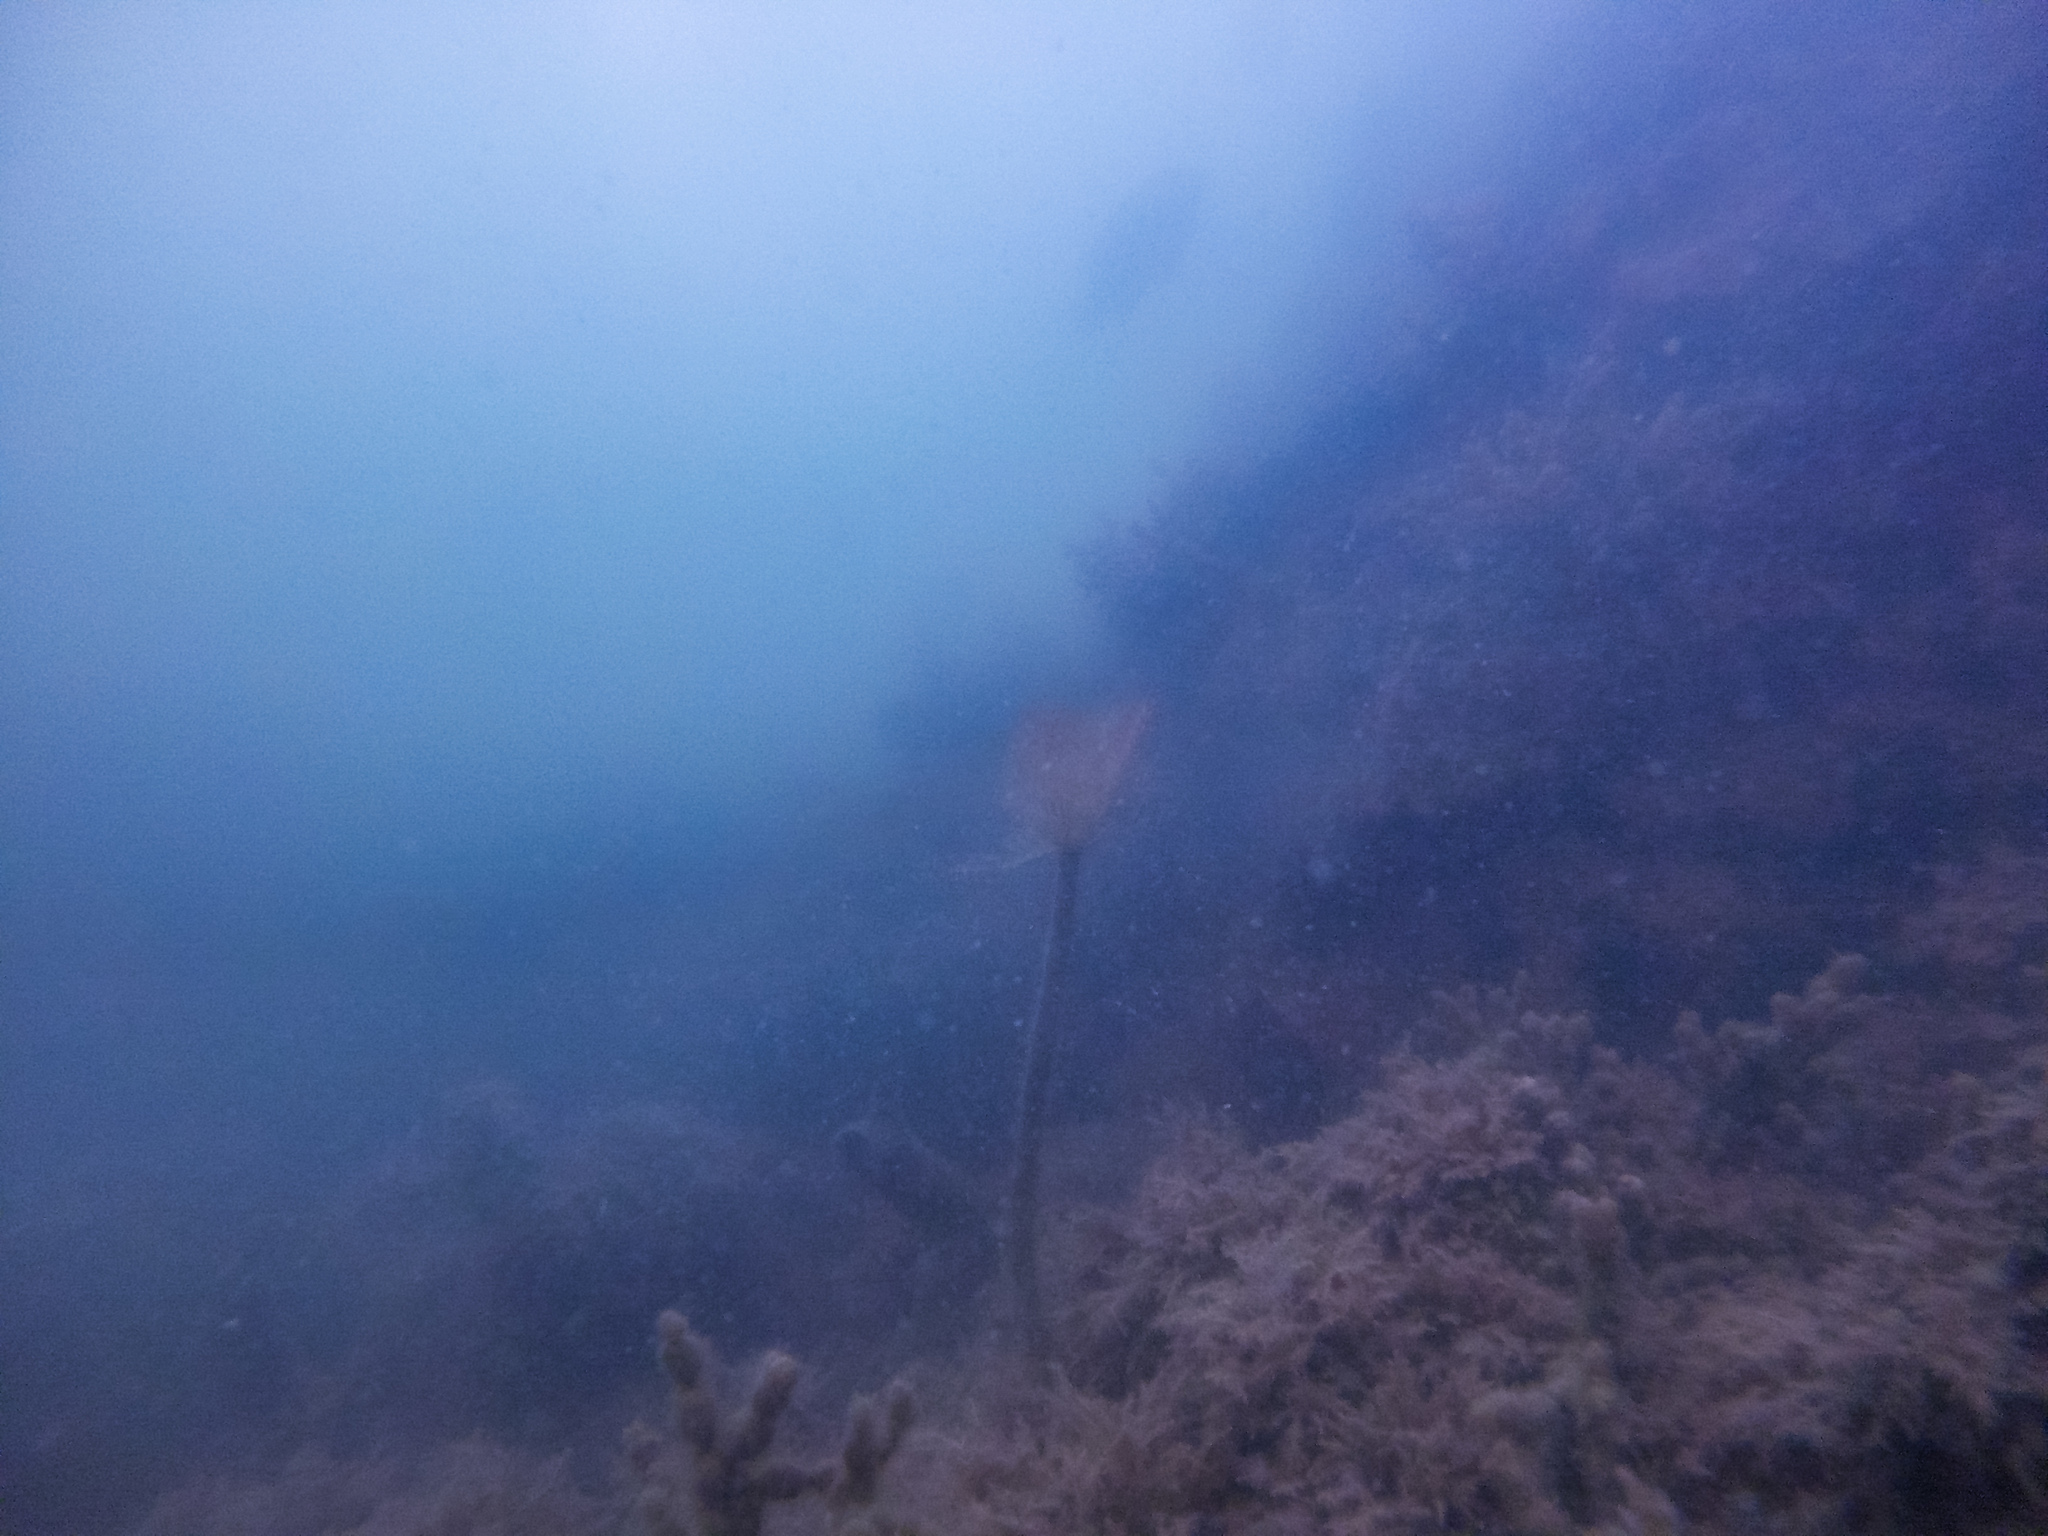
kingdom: Animalia
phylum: Annelida
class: Polychaeta
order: Sabellida
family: Sabellidae
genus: Sabella
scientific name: Sabella spallanzanii
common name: Feather duster worm
